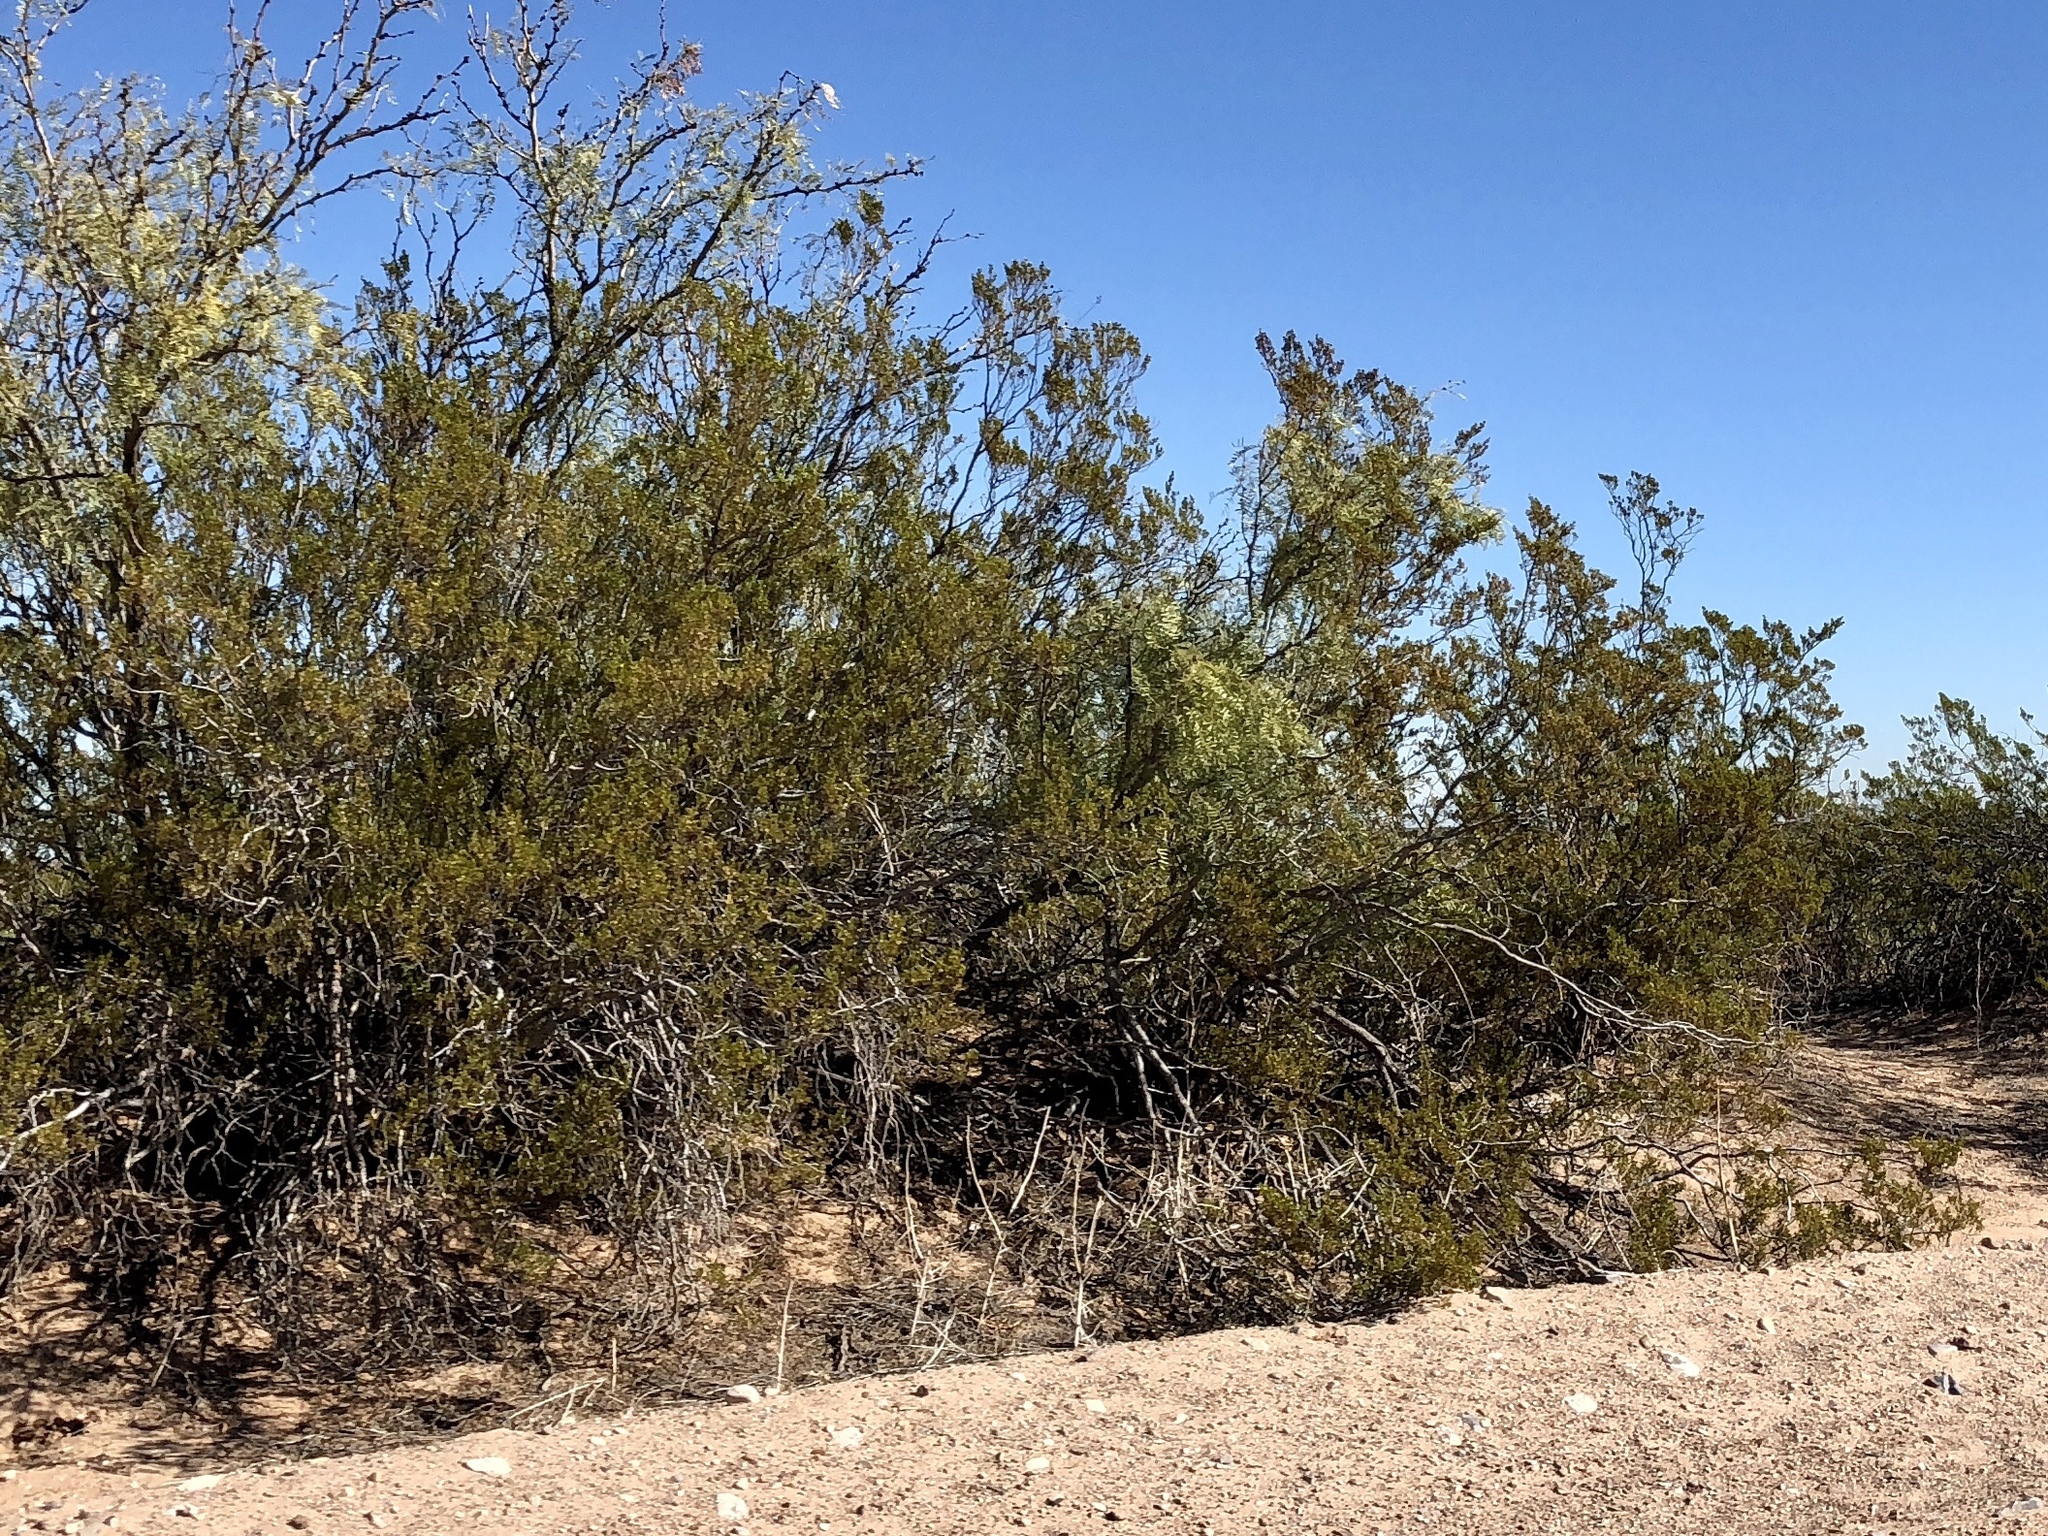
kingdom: Plantae
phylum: Tracheophyta
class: Magnoliopsida
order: Zygophyllales
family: Zygophyllaceae
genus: Larrea
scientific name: Larrea tridentata
